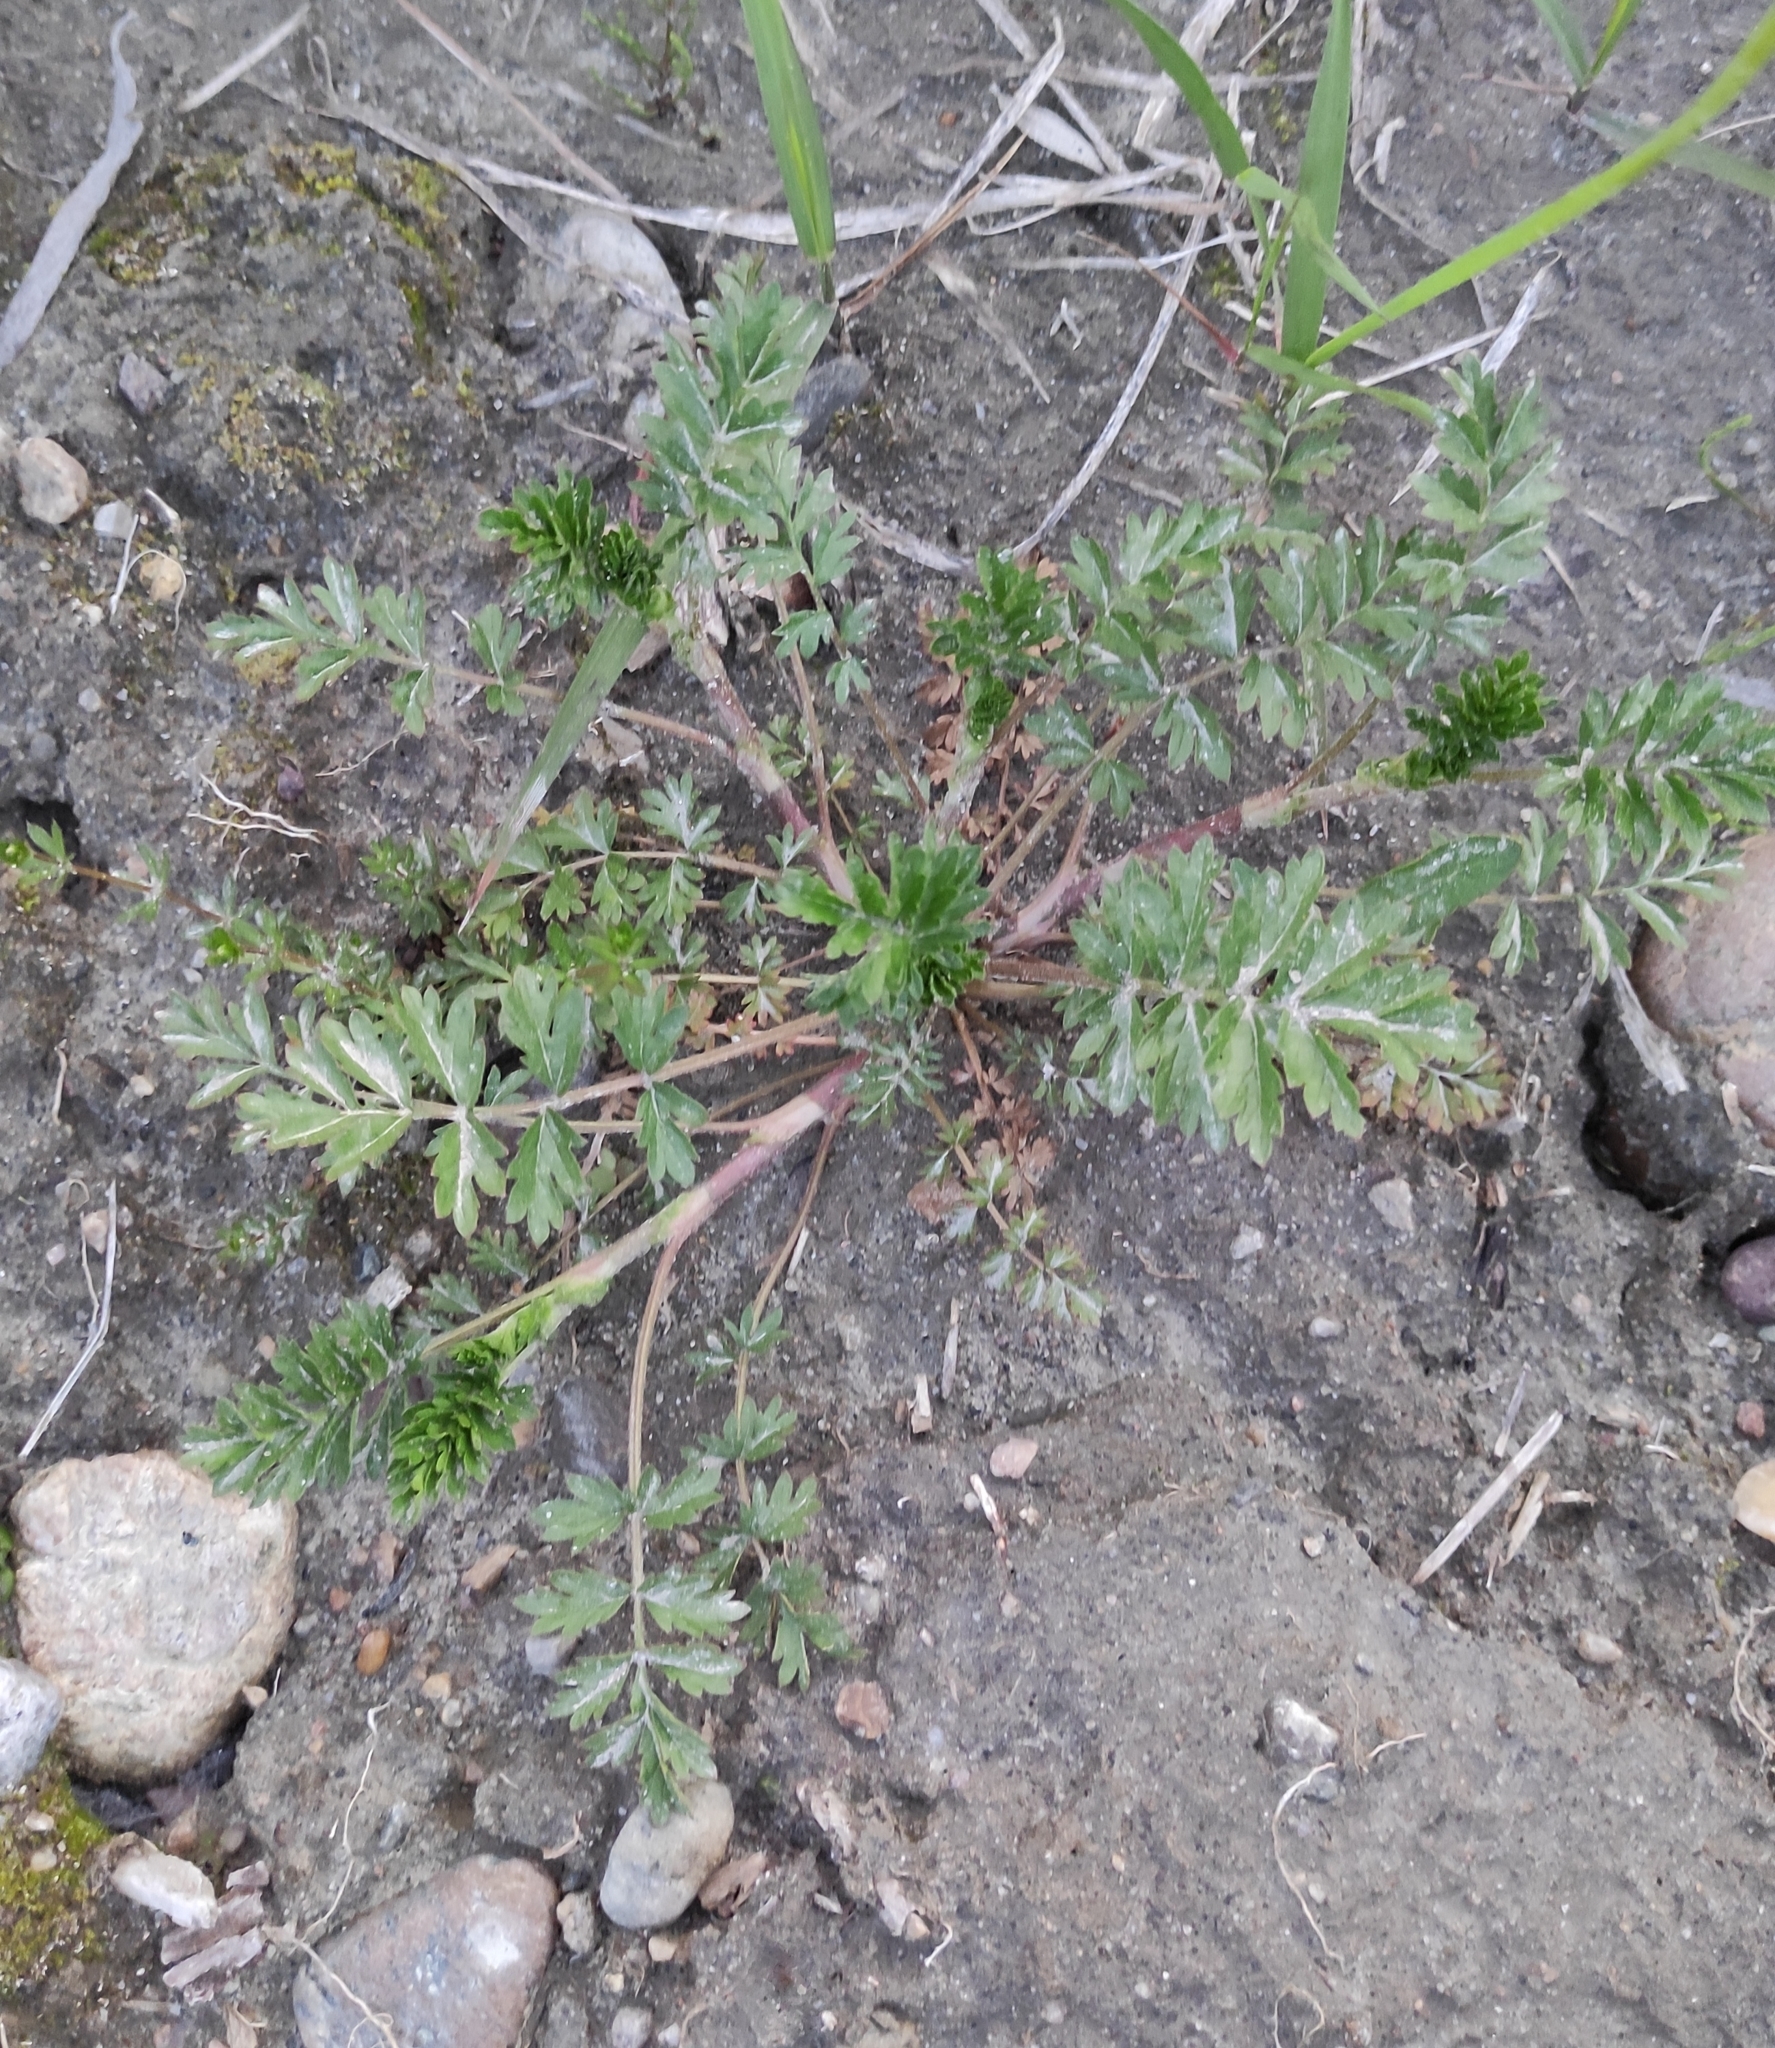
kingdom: Plantae
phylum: Tracheophyta
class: Magnoliopsida
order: Rosales
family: Rosaceae
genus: Potentilla
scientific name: Potentilla supina
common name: Prostrate cinquefoil
